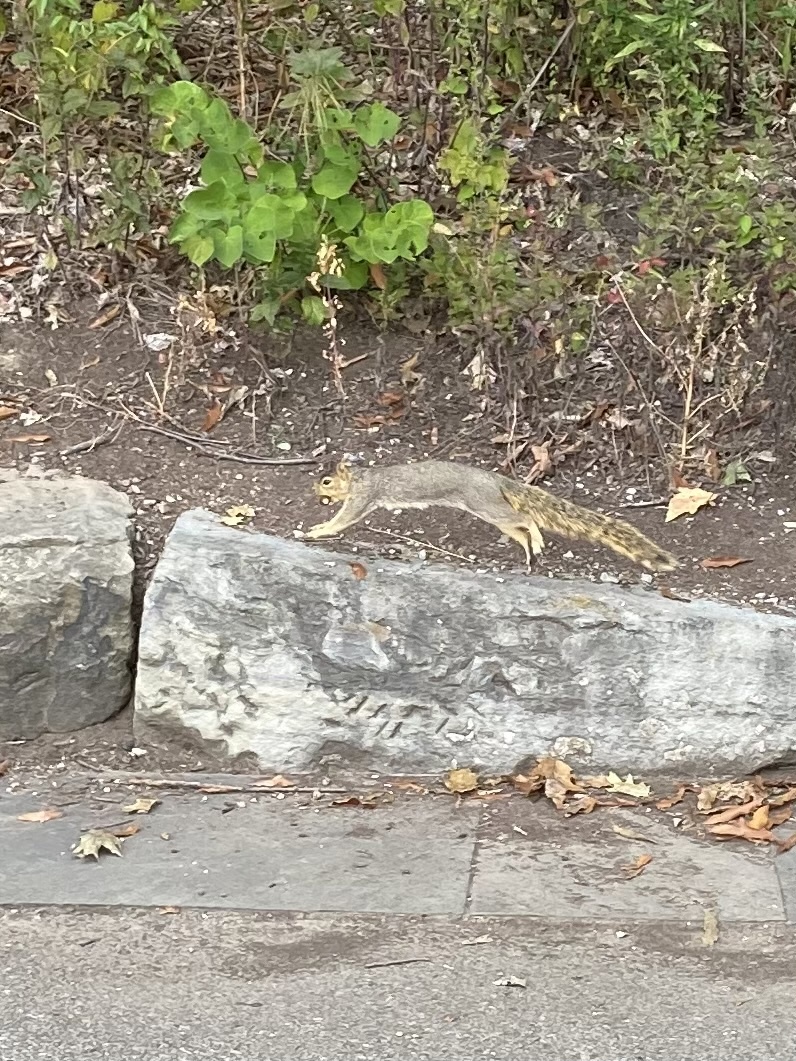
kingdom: Animalia
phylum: Chordata
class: Mammalia
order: Rodentia
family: Sciuridae
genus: Sciurus
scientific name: Sciurus niger
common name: Fox squirrel
